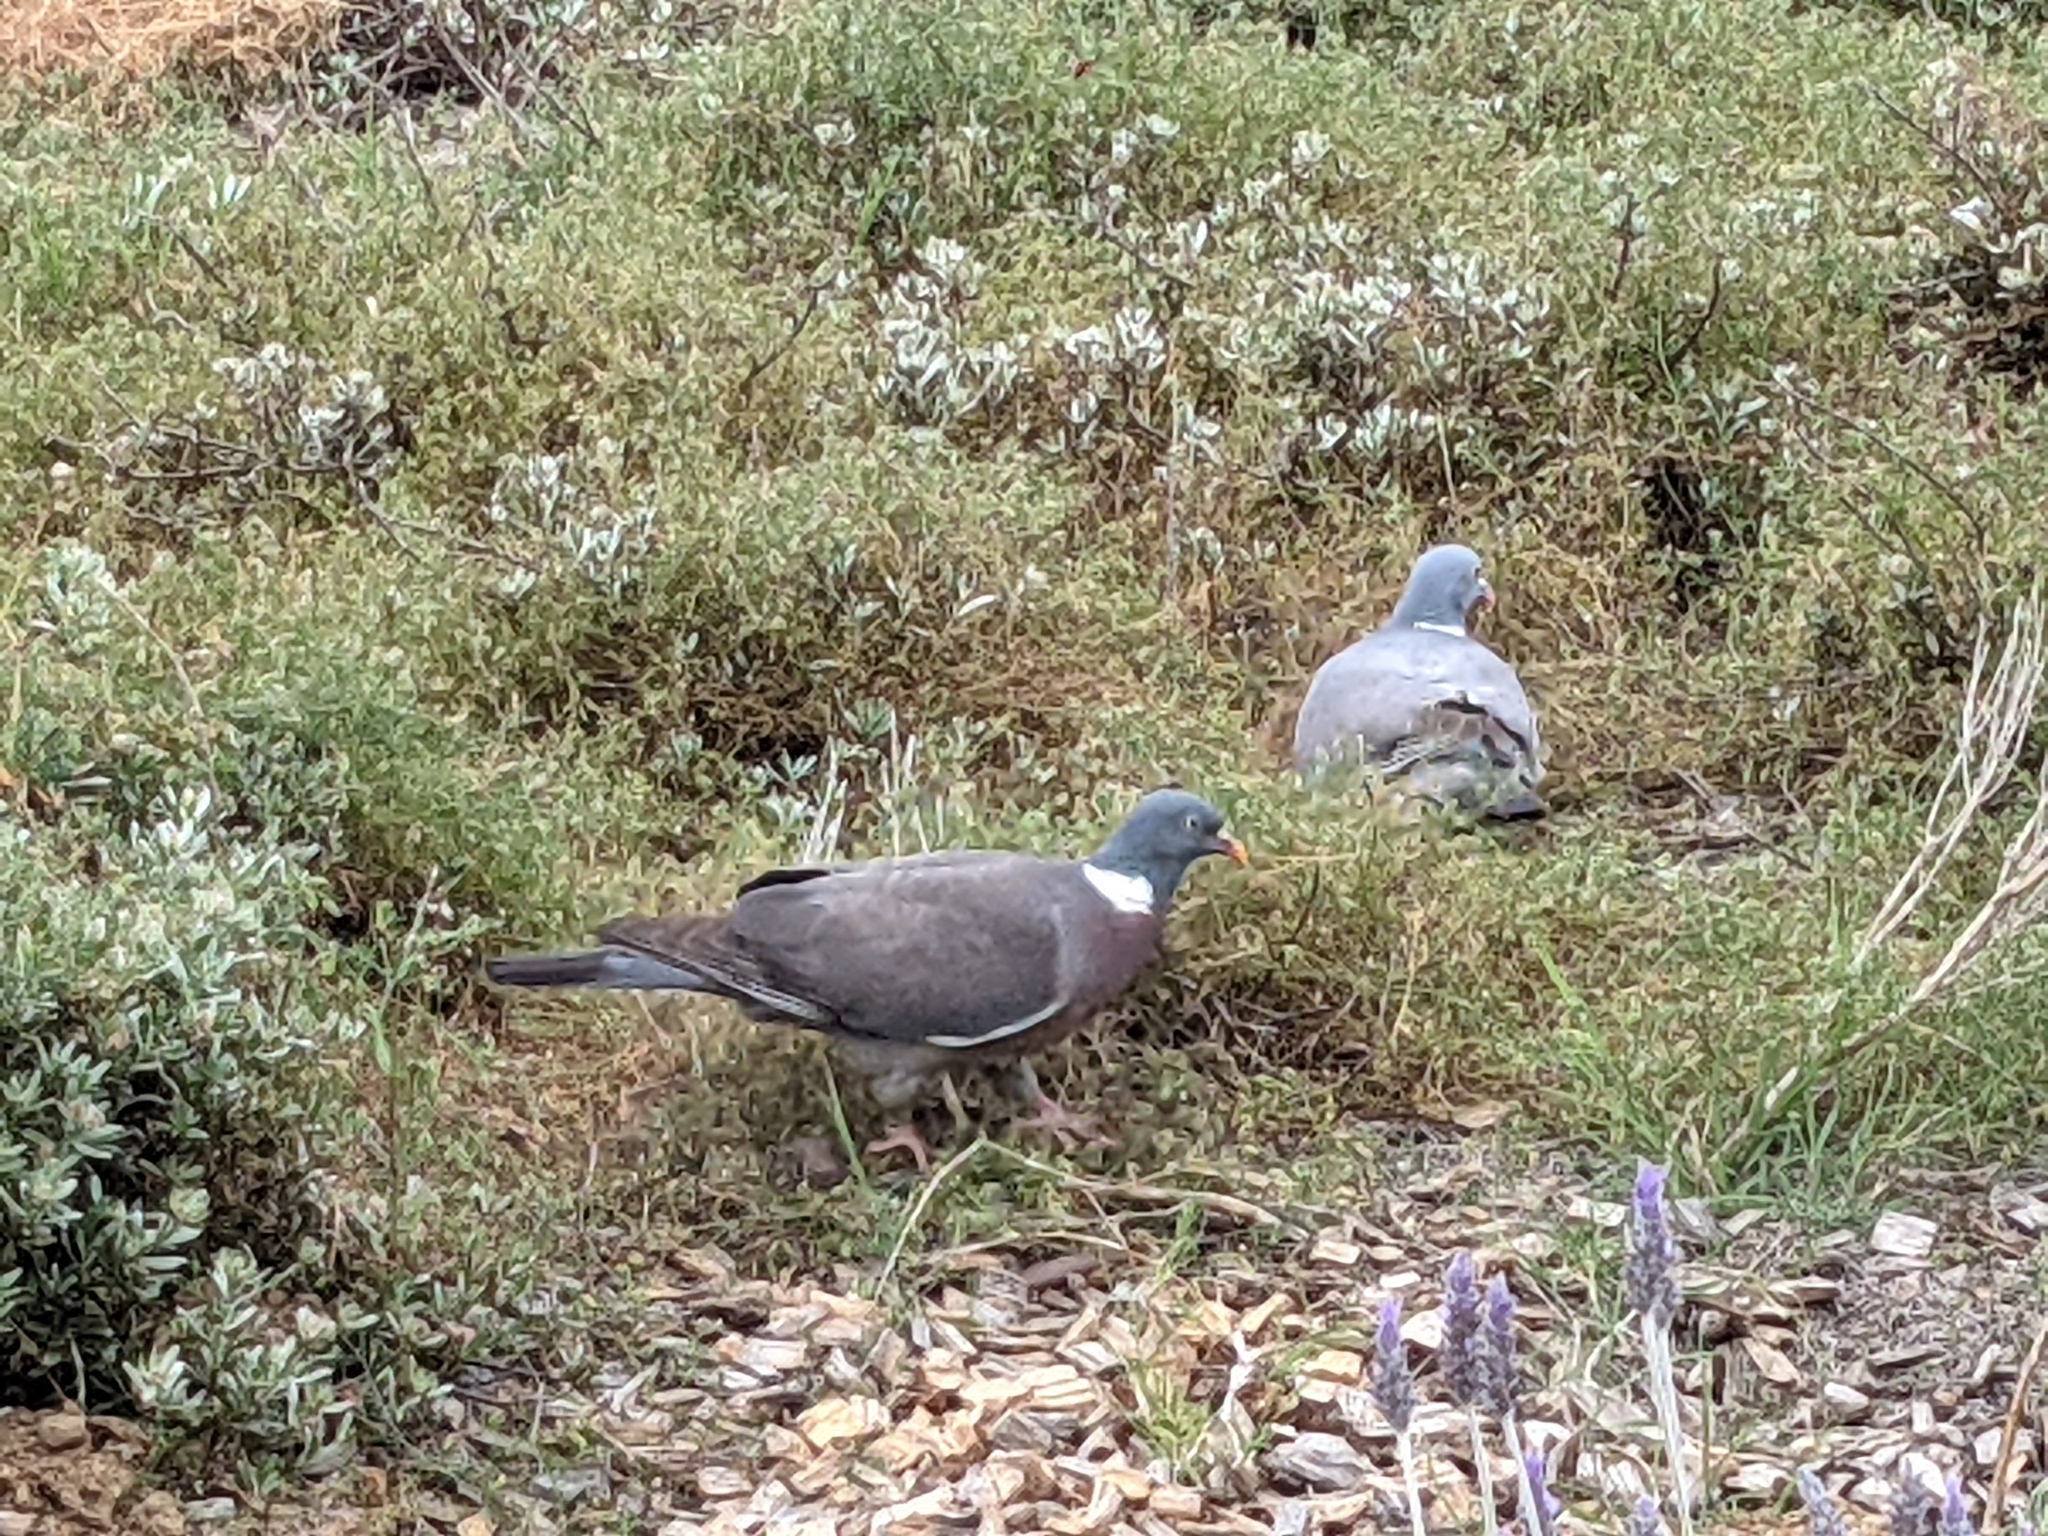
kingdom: Animalia
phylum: Chordata
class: Aves
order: Columbiformes
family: Columbidae
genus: Columba
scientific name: Columba palumbus
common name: Common wood pigeon
